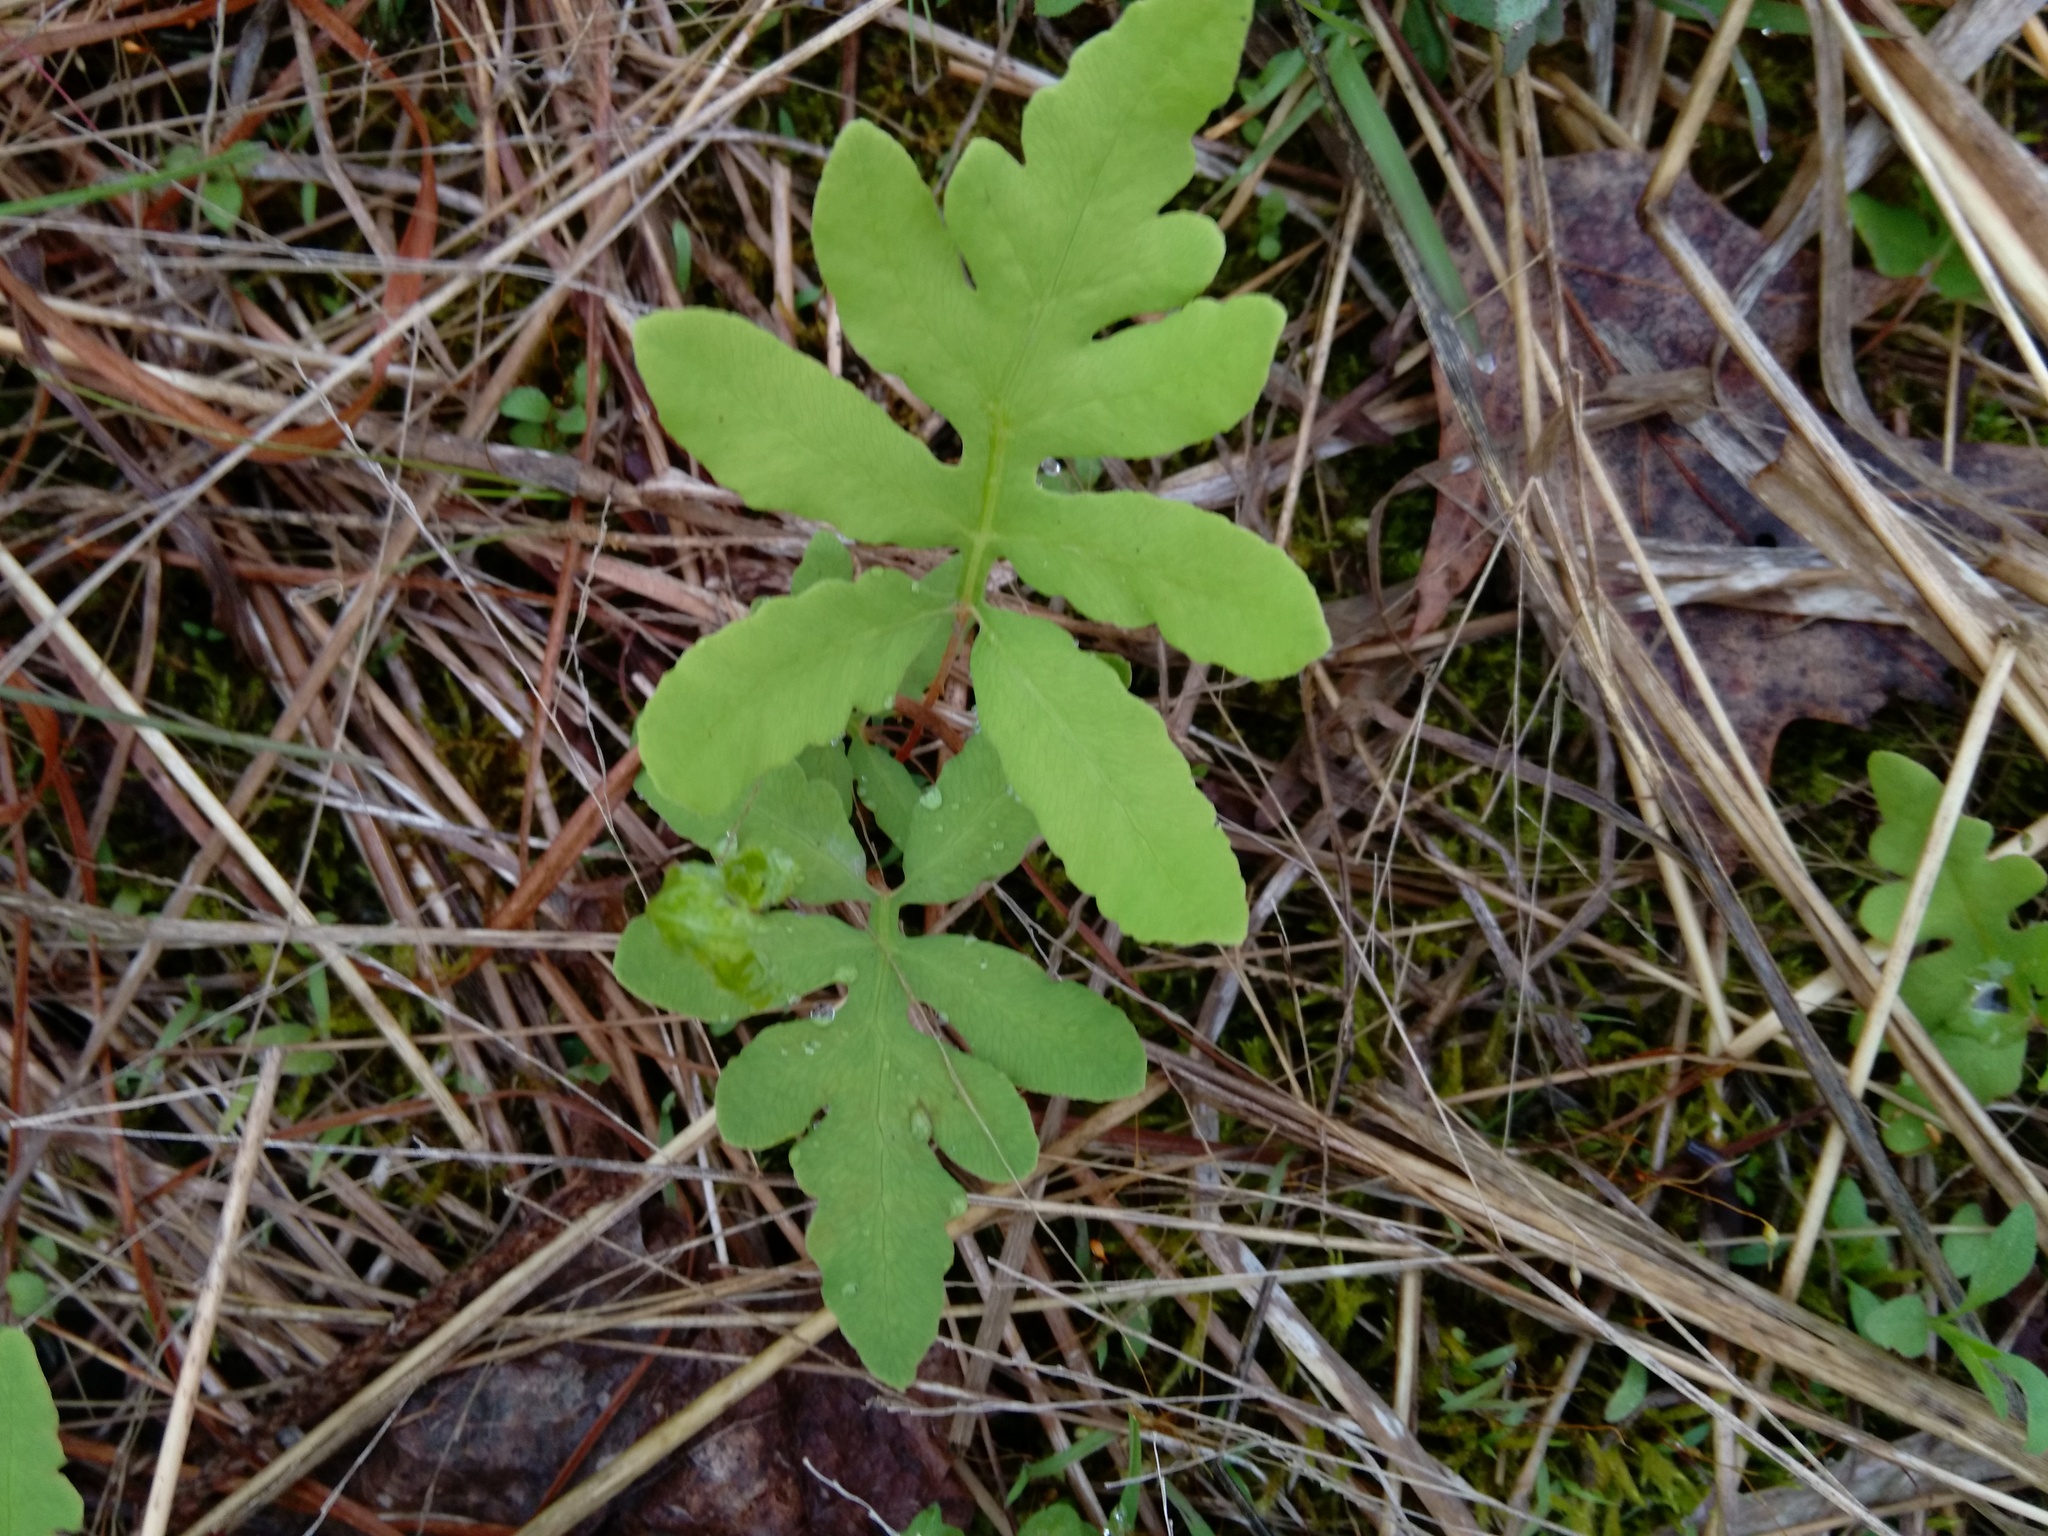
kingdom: Plantae
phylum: Tracheophyta
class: Polypodiopsida
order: Polypodiales
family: Onocleaceae
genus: Onoclea
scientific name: Onoclea sensibilis
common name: Sensitive fern
